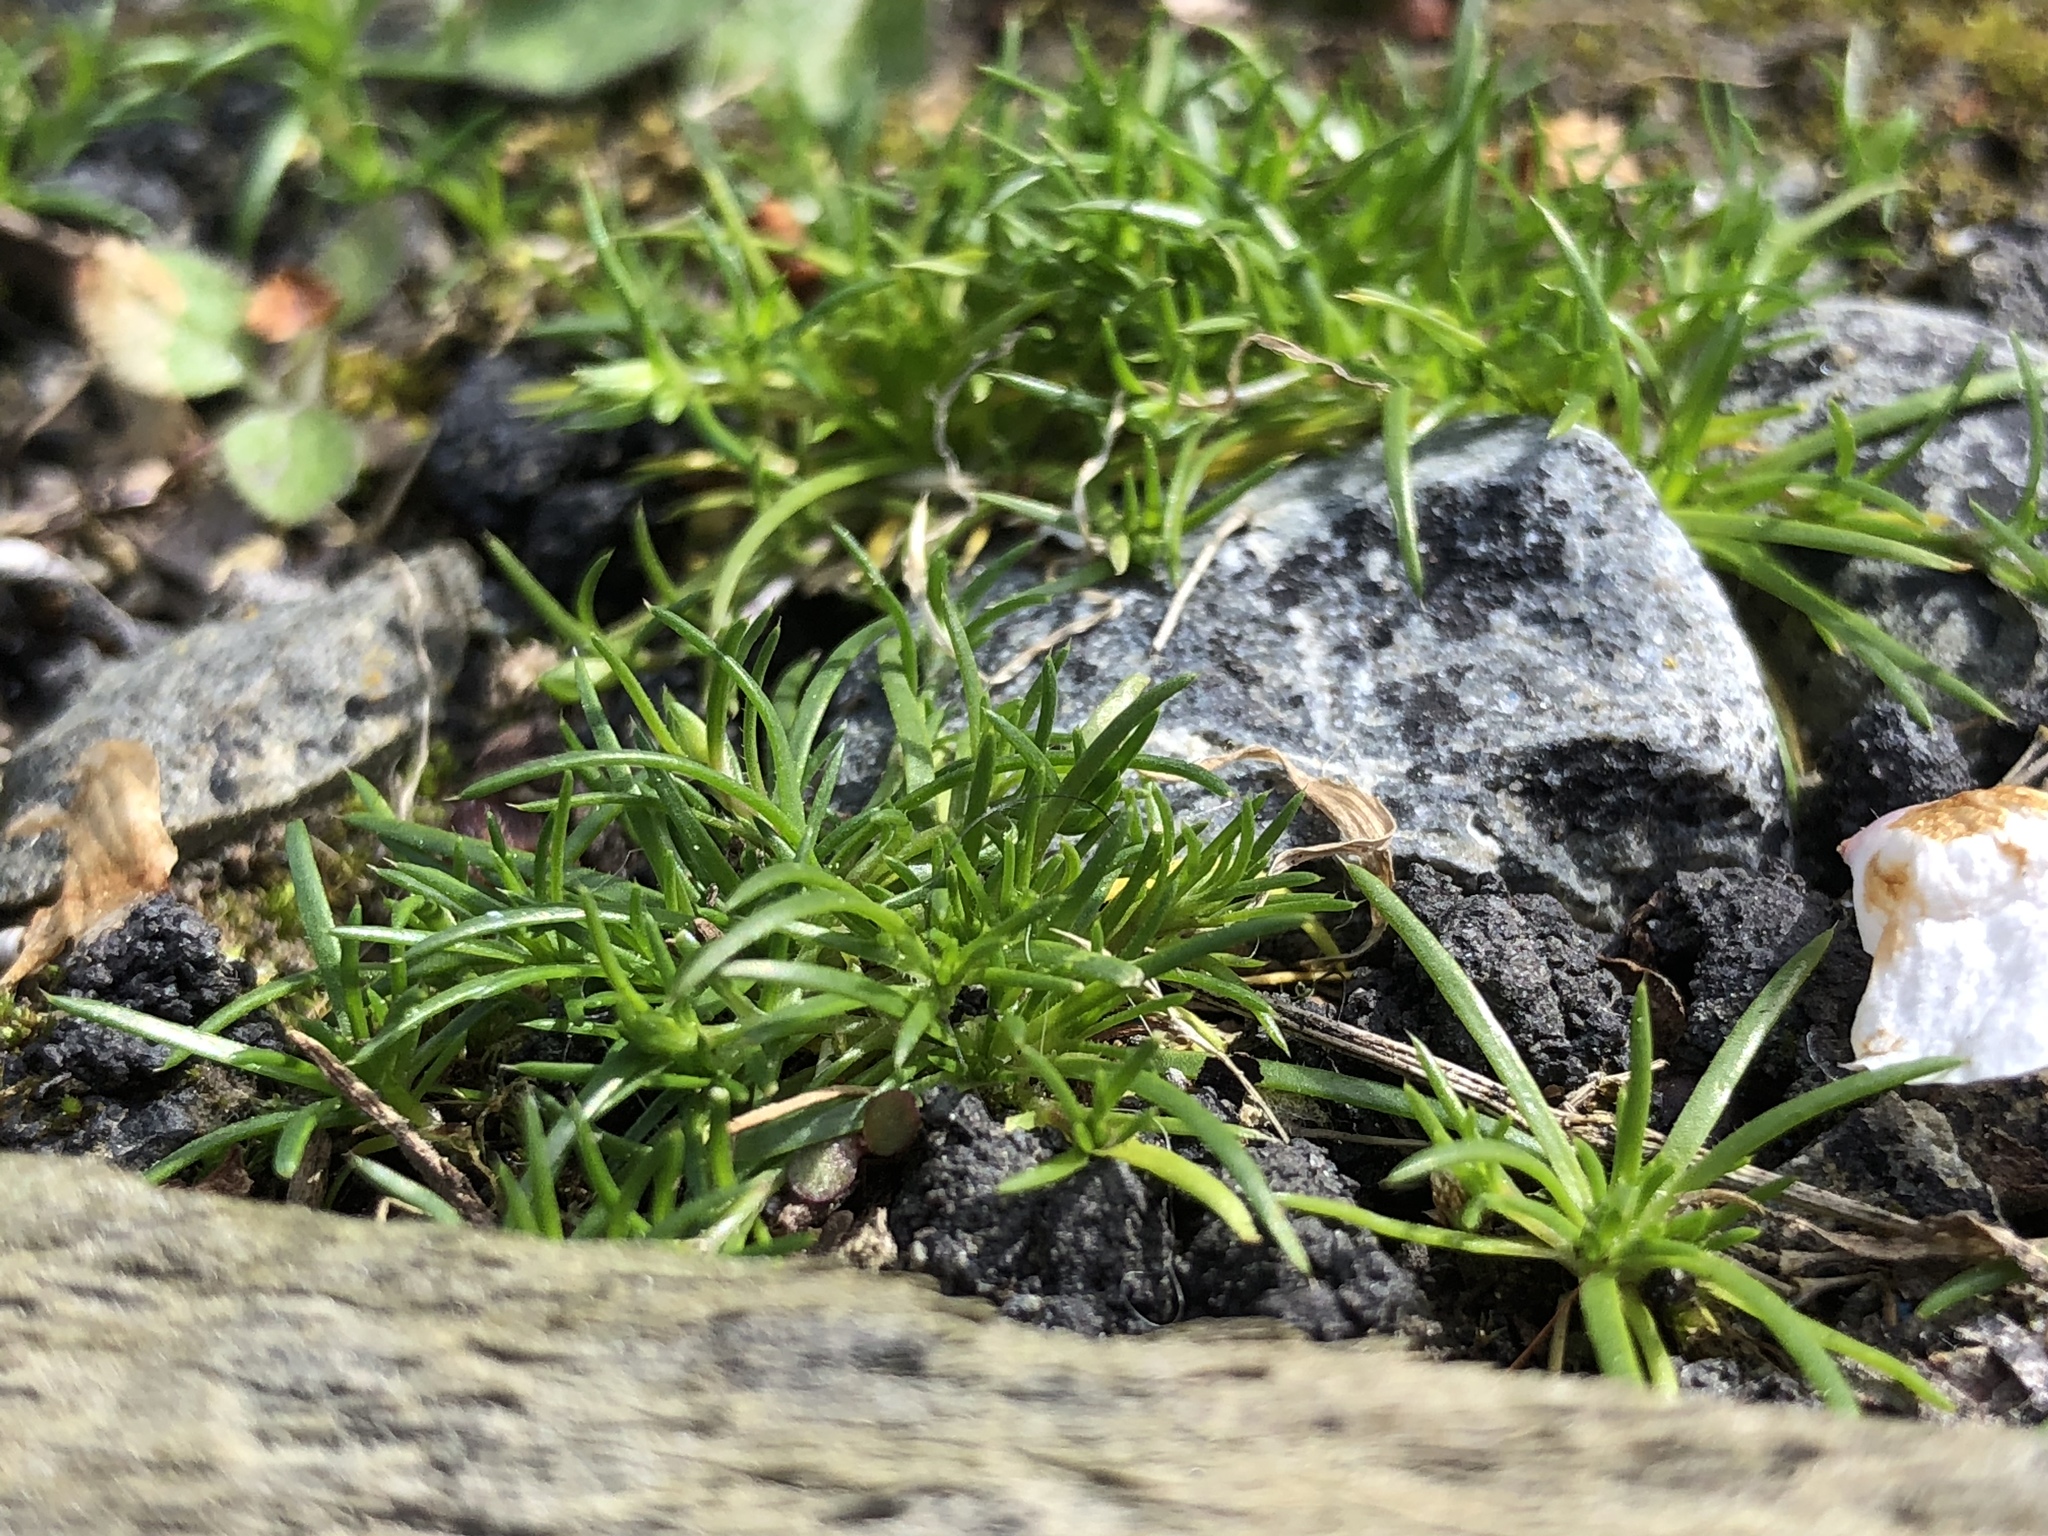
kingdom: Plantae
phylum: Tracheophyta
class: Magnoliopsida
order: Caryophyllales
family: Caryophyllaceae
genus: Sagina
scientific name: Sagina procumbens
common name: Procumbent pearlwort
